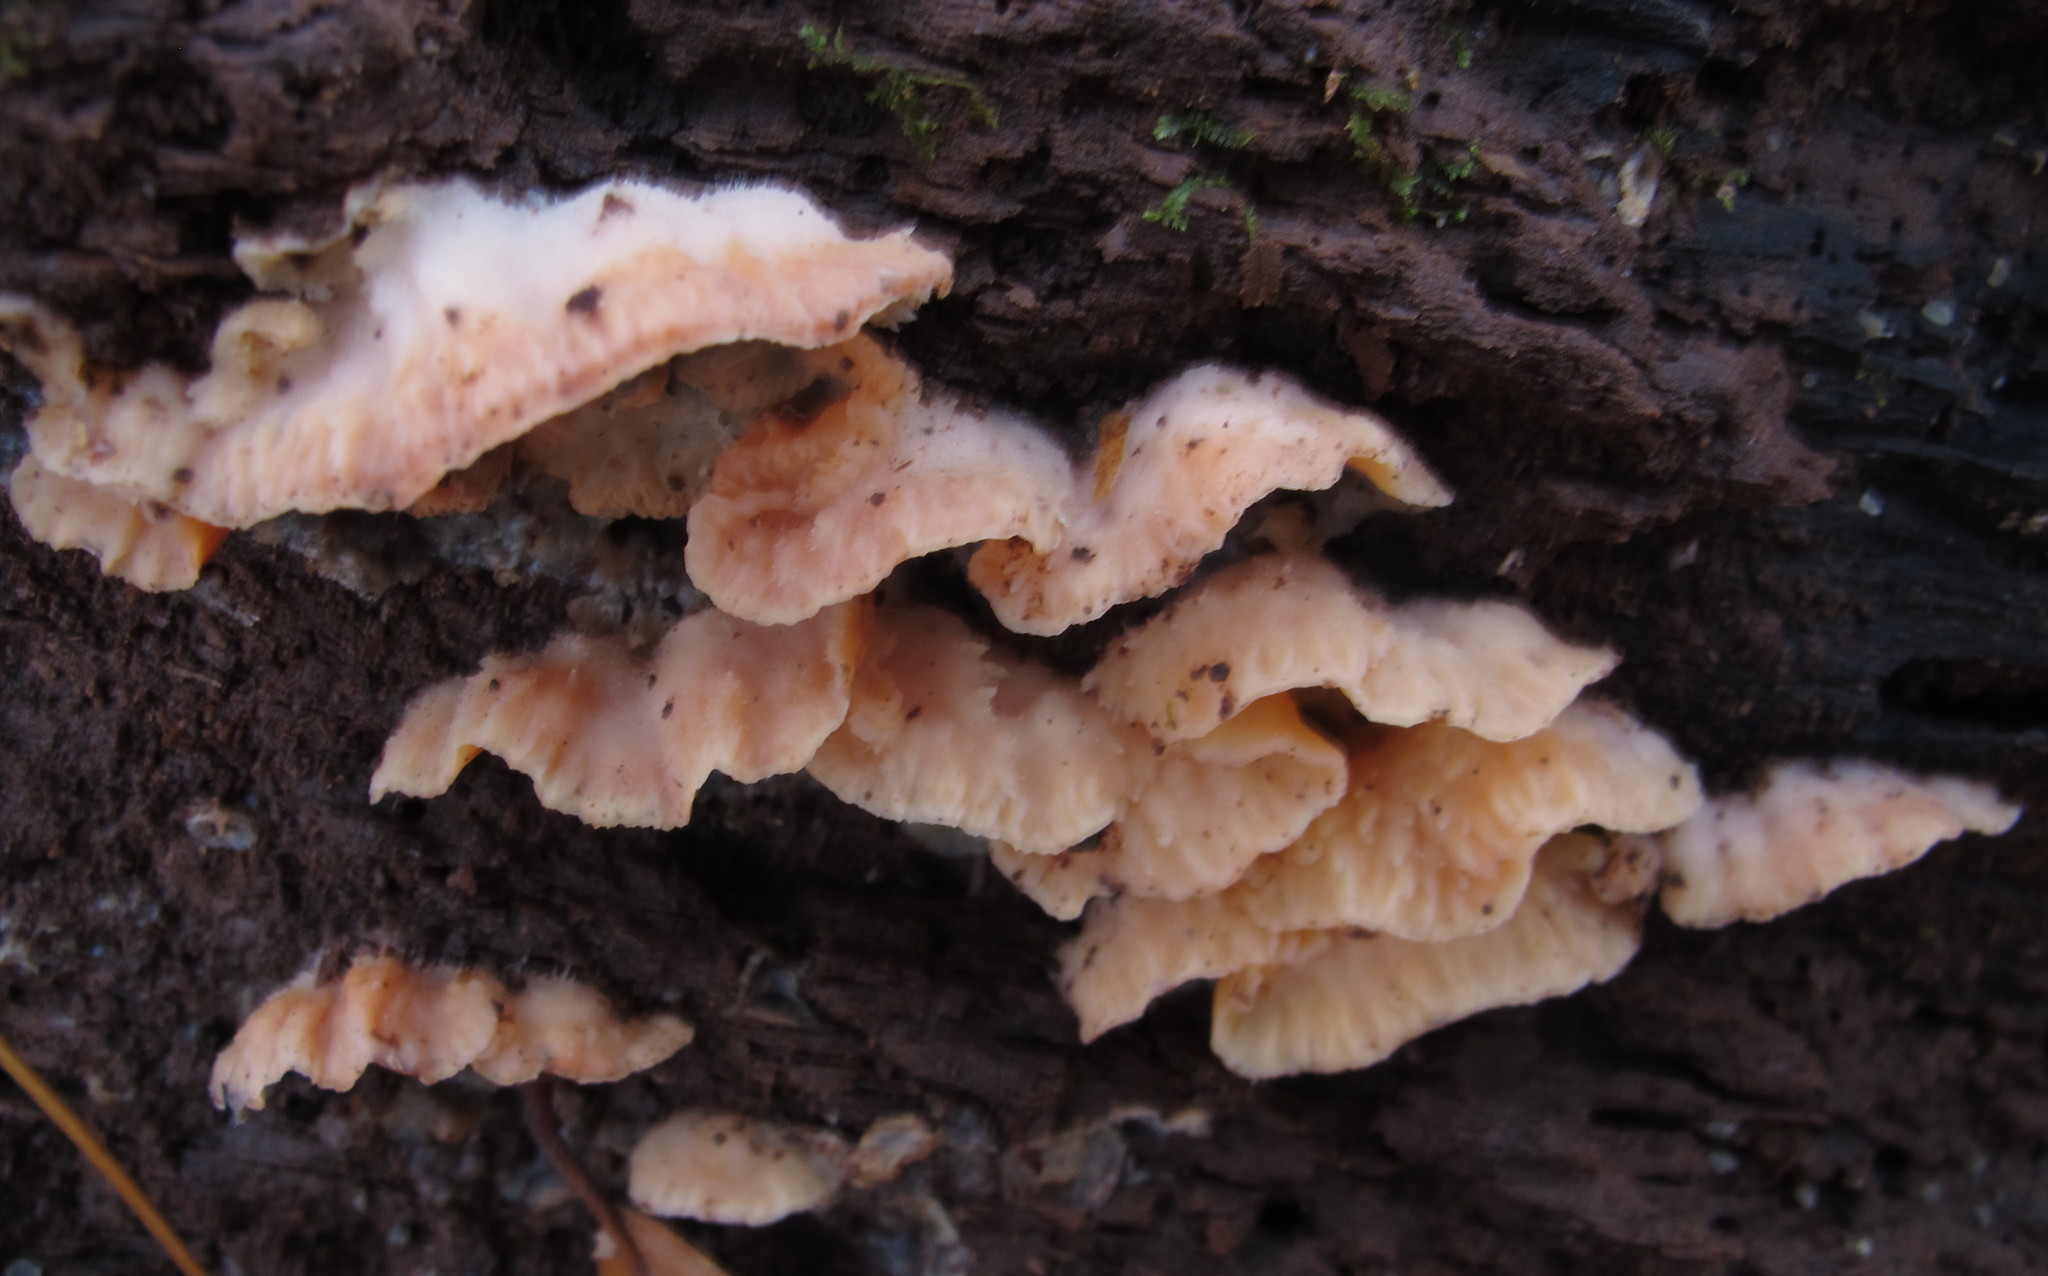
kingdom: Fungi
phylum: Basidiomycota
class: Agaricomycetes
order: Polyporales
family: Meruliaceae
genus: Phlebia
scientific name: Phlebia tremellosa
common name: Jelly rot
